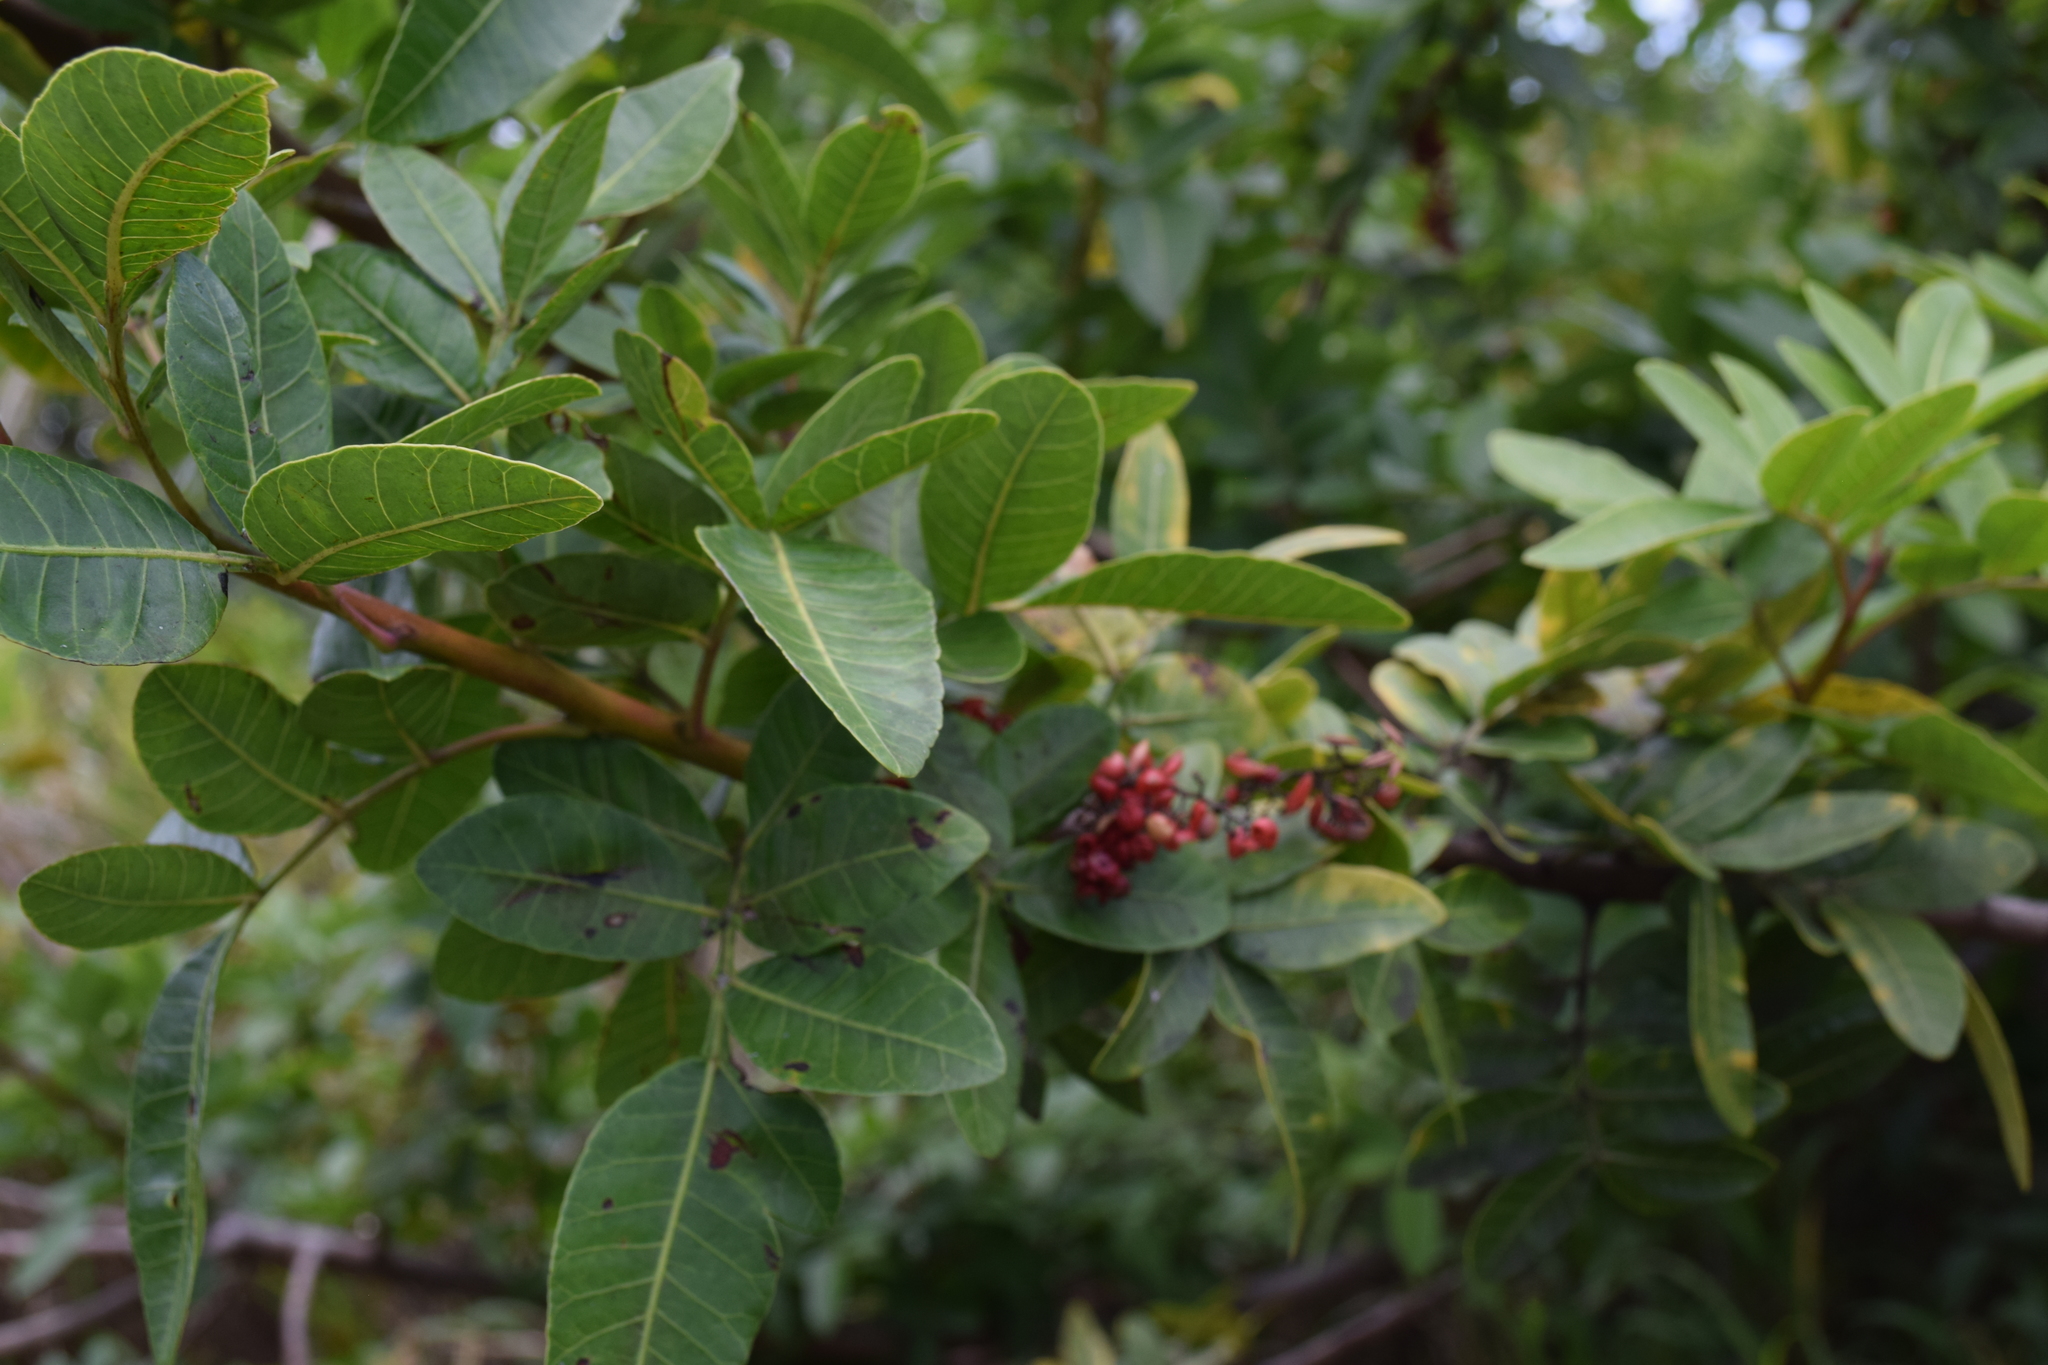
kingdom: Plantae
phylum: Tracheophyta
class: Magnoliopsida
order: Sapindales
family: Anacardiaceae
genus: Schinus
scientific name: Schinus terebinthifolia
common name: Brazilian peppertree
